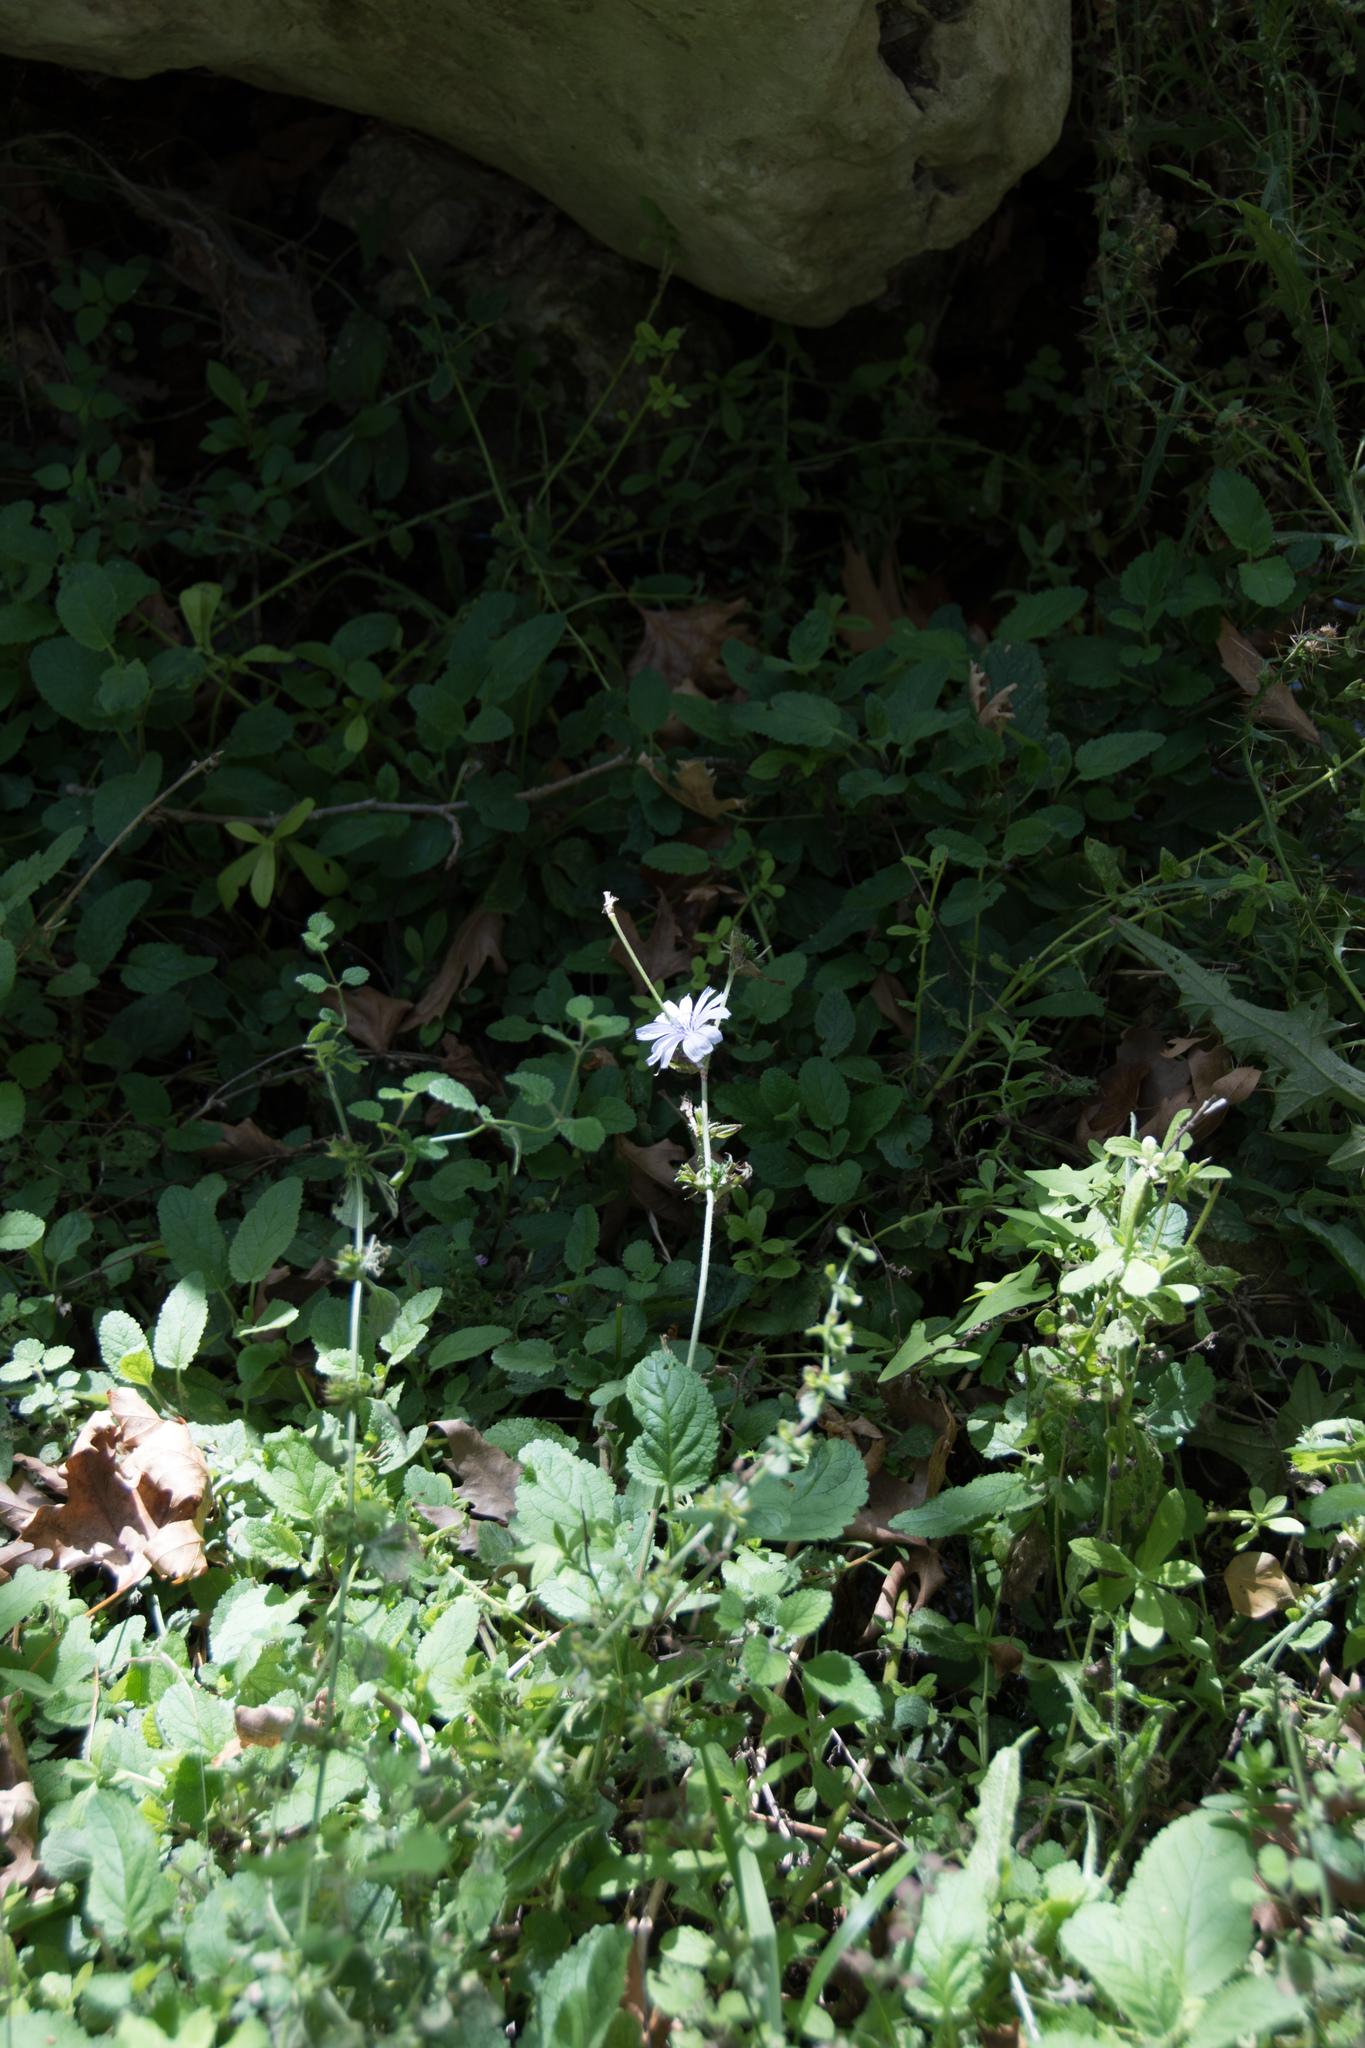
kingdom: Plantae
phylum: Tracheophyta
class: Magnoliopsida
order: Asterales
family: Asteraceae
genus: Cichorium
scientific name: Cichorium intybus
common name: Chicory
